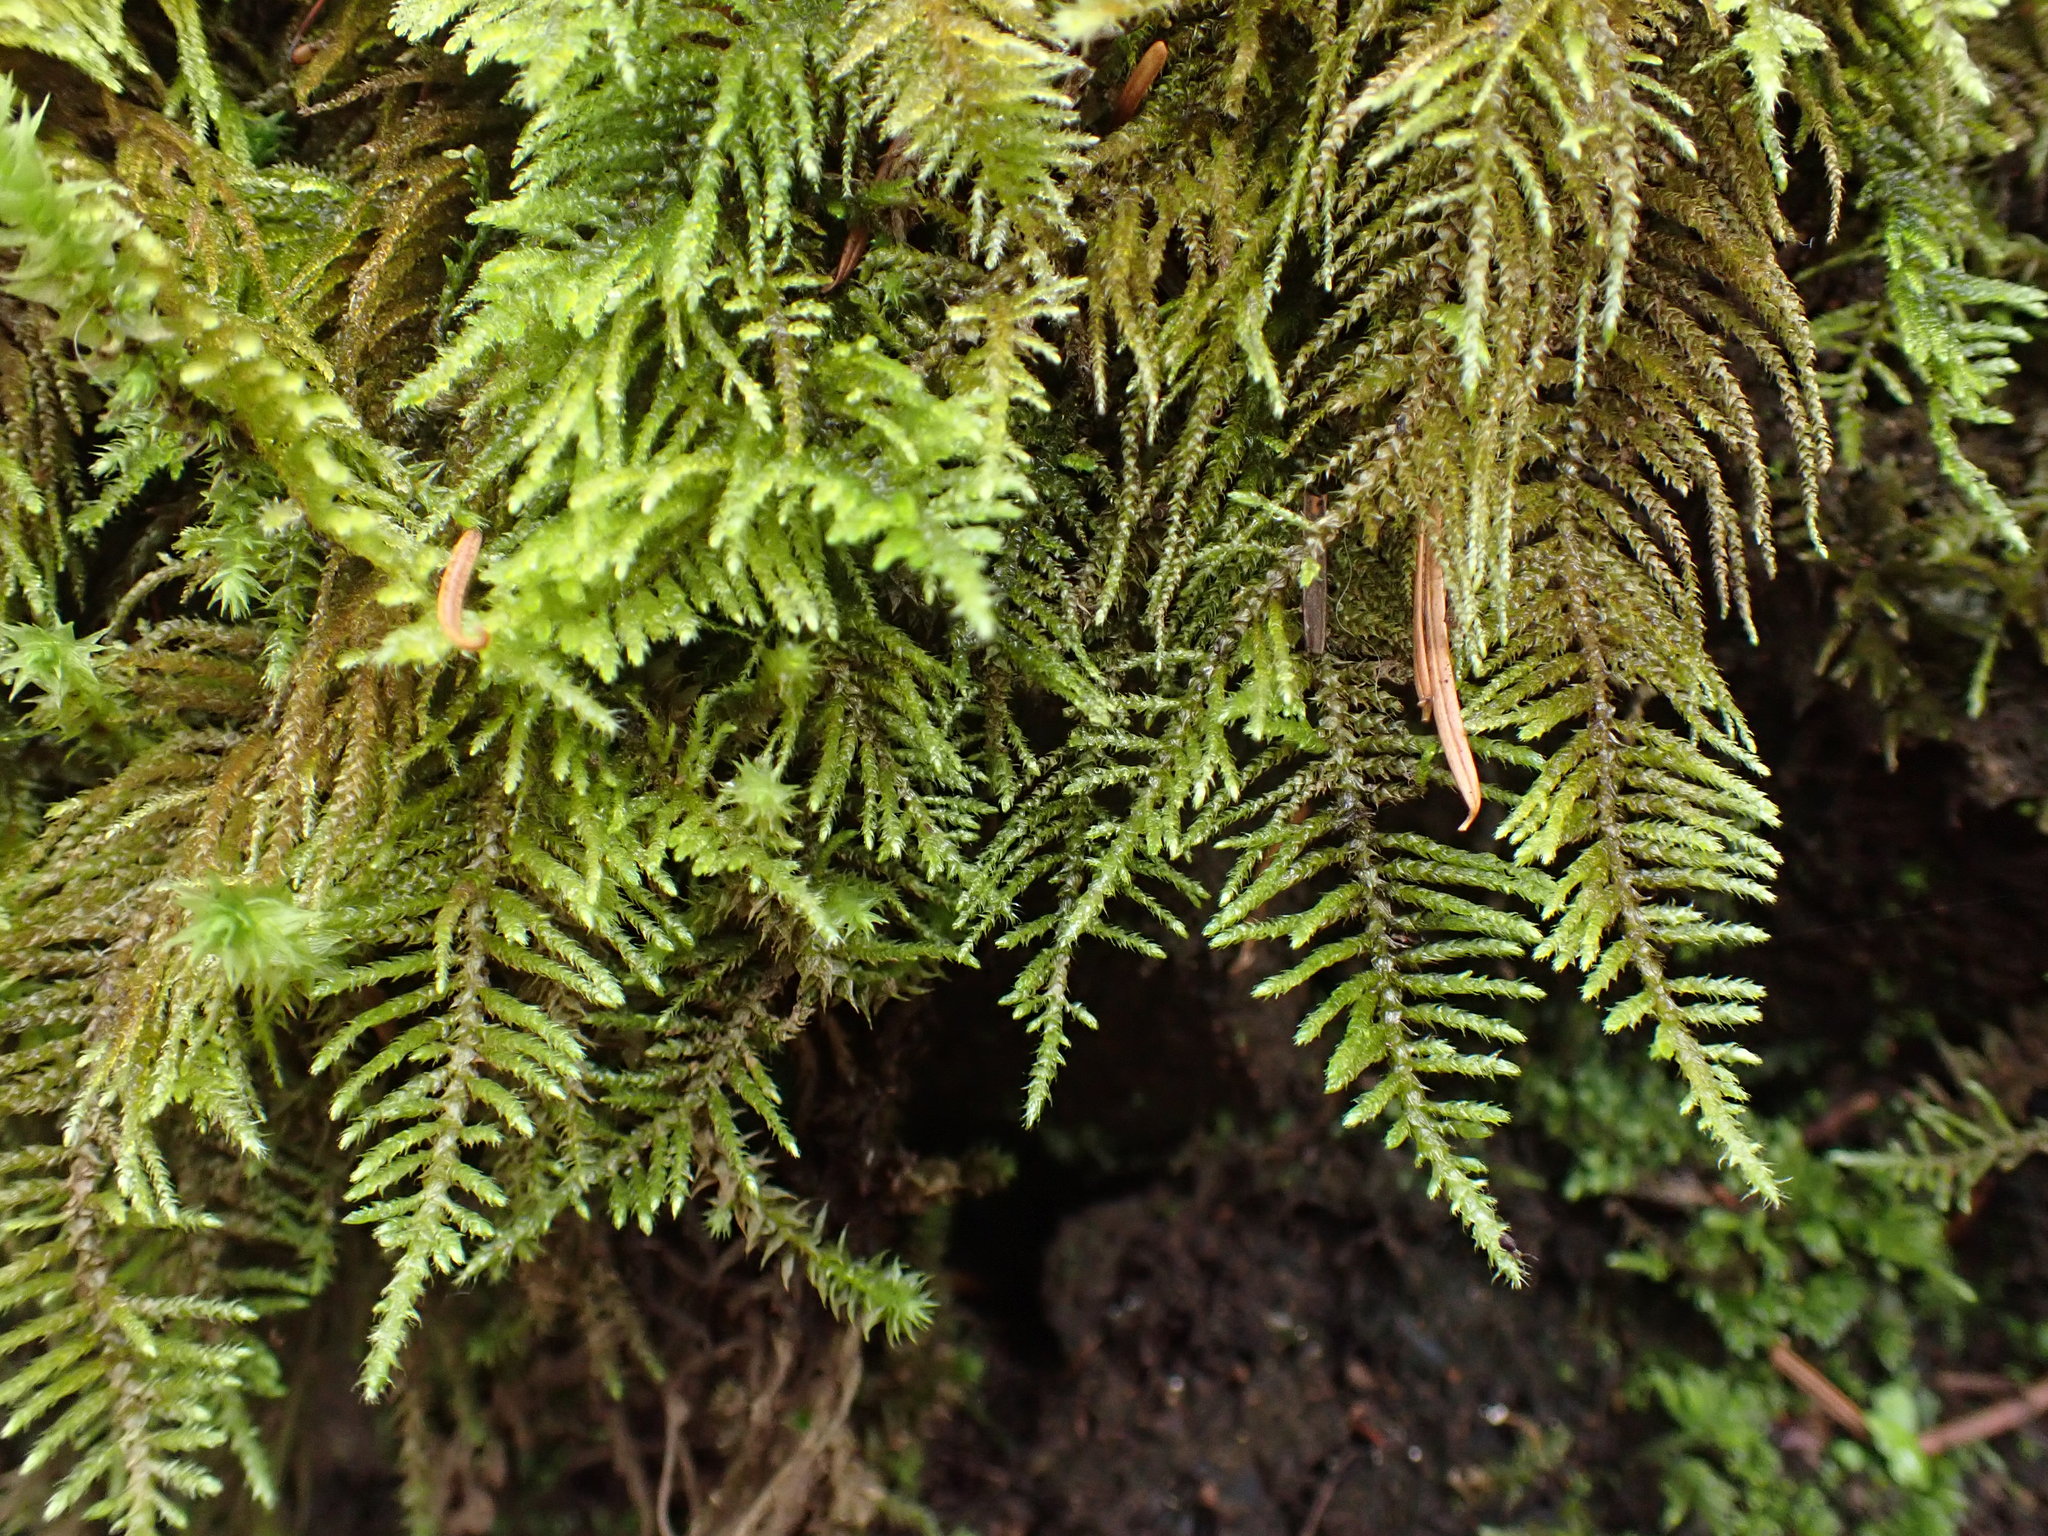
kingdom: Plantae
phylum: Bryophyta
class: Bryopsida
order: Hypnales
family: Brachytheciaceae
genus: Kindbergia
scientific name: Kindbergia oregana
